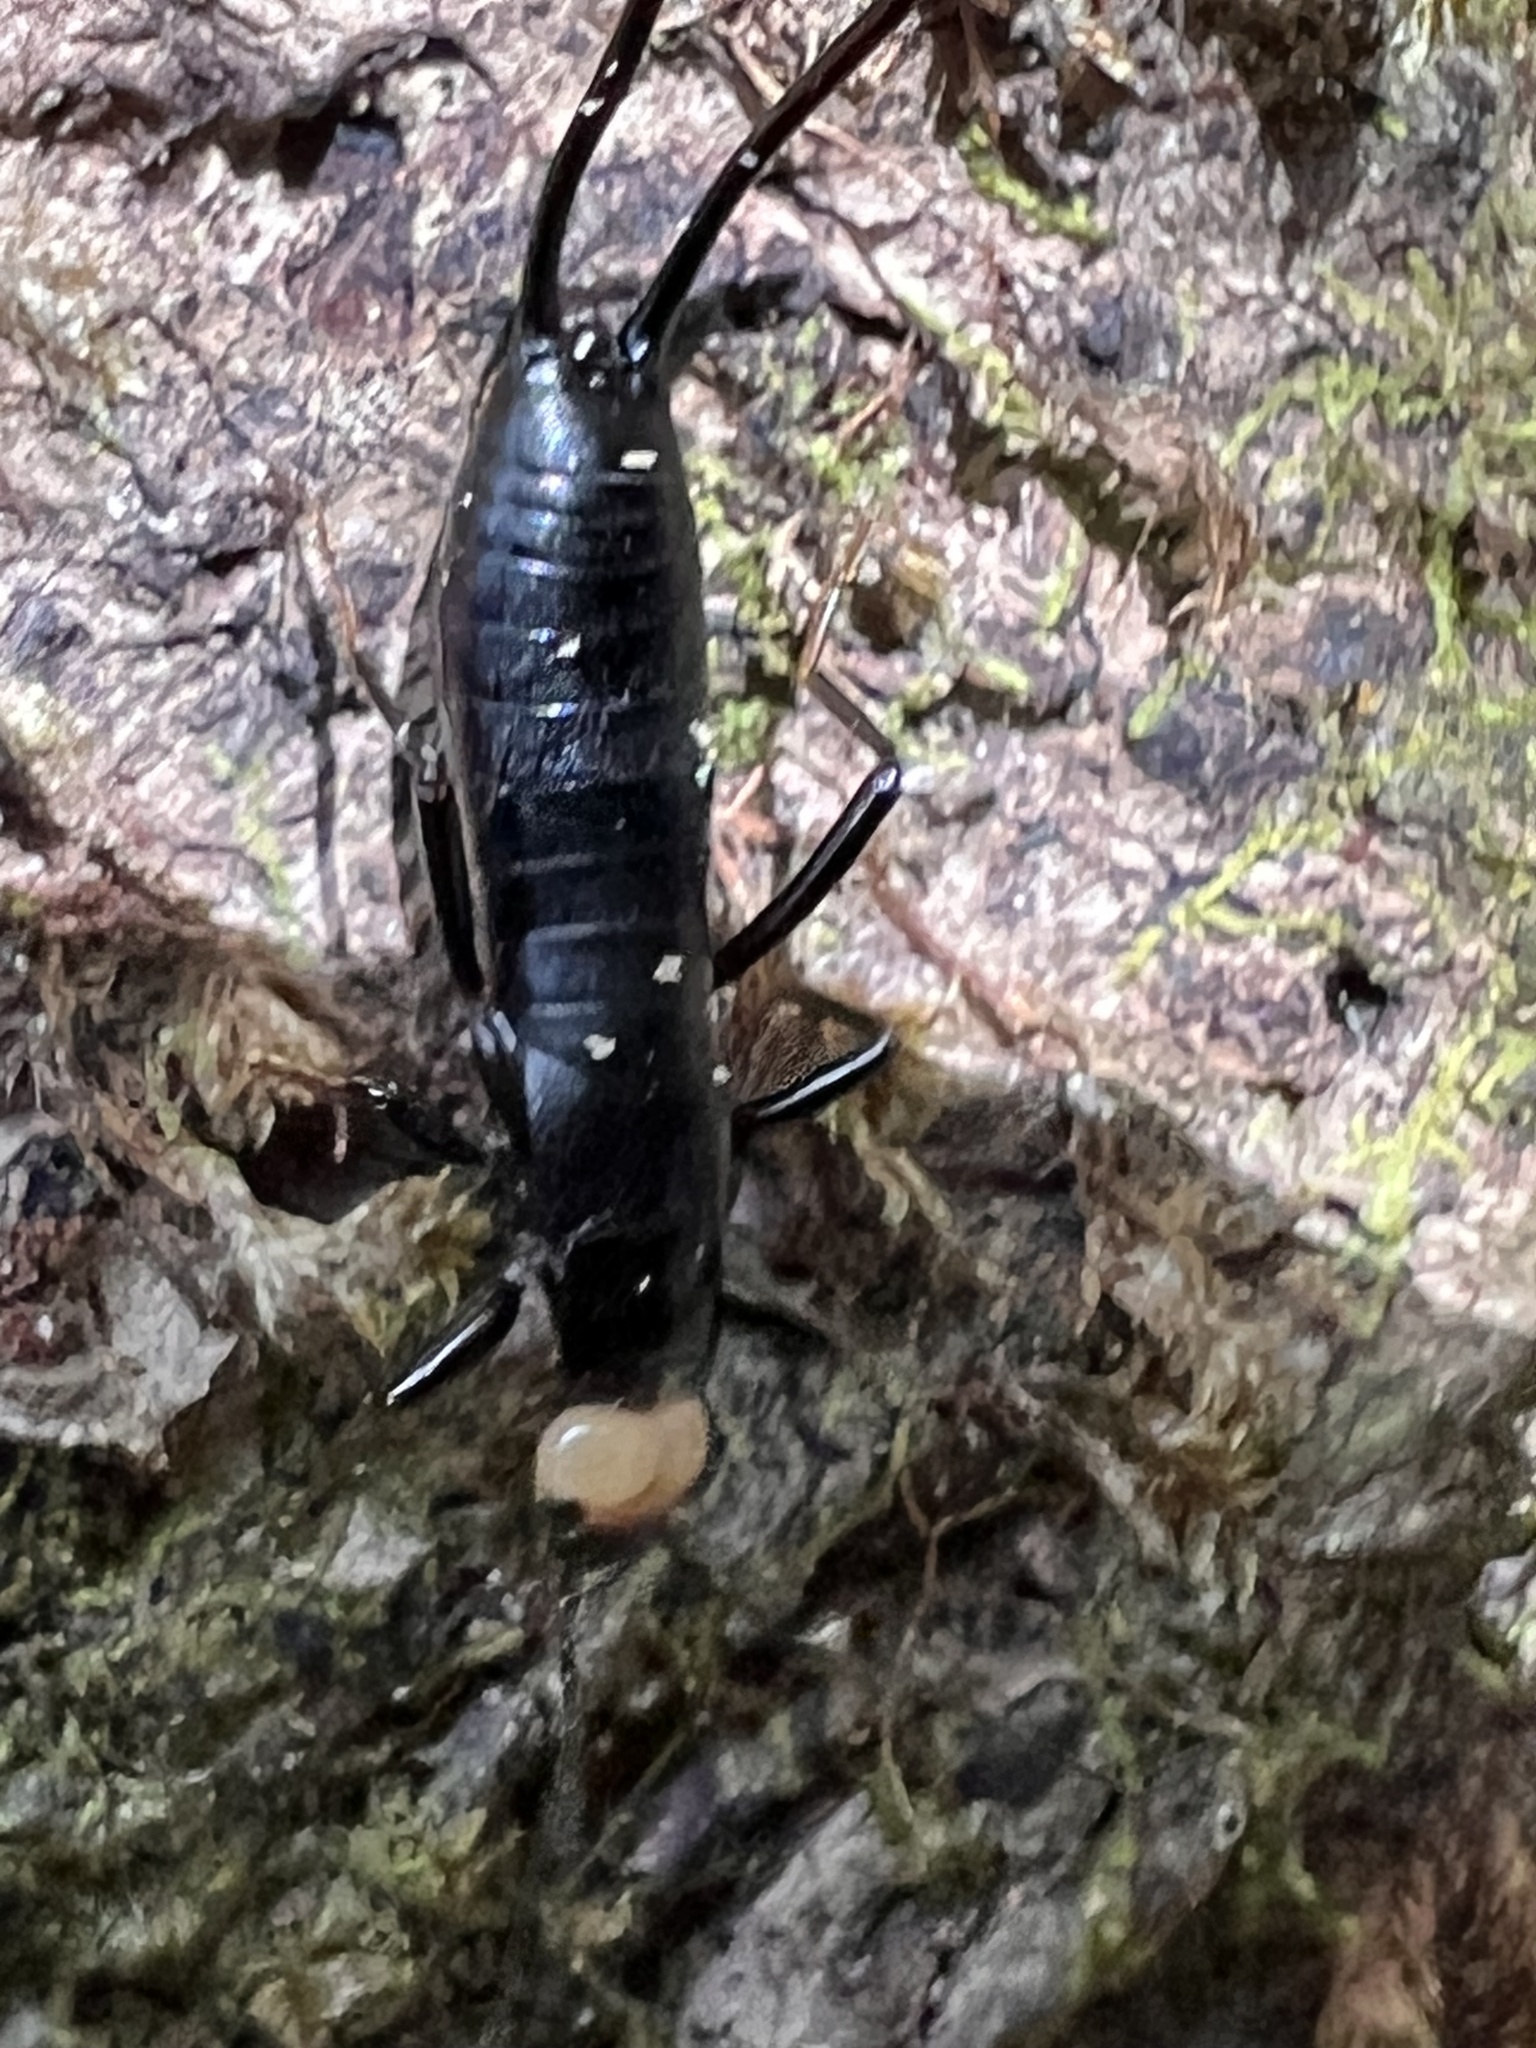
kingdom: Animalia
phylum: Arthropoda
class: Insecta
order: Dermaptera
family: Forficulidae
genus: Metresura
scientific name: Metresura flaviceps
